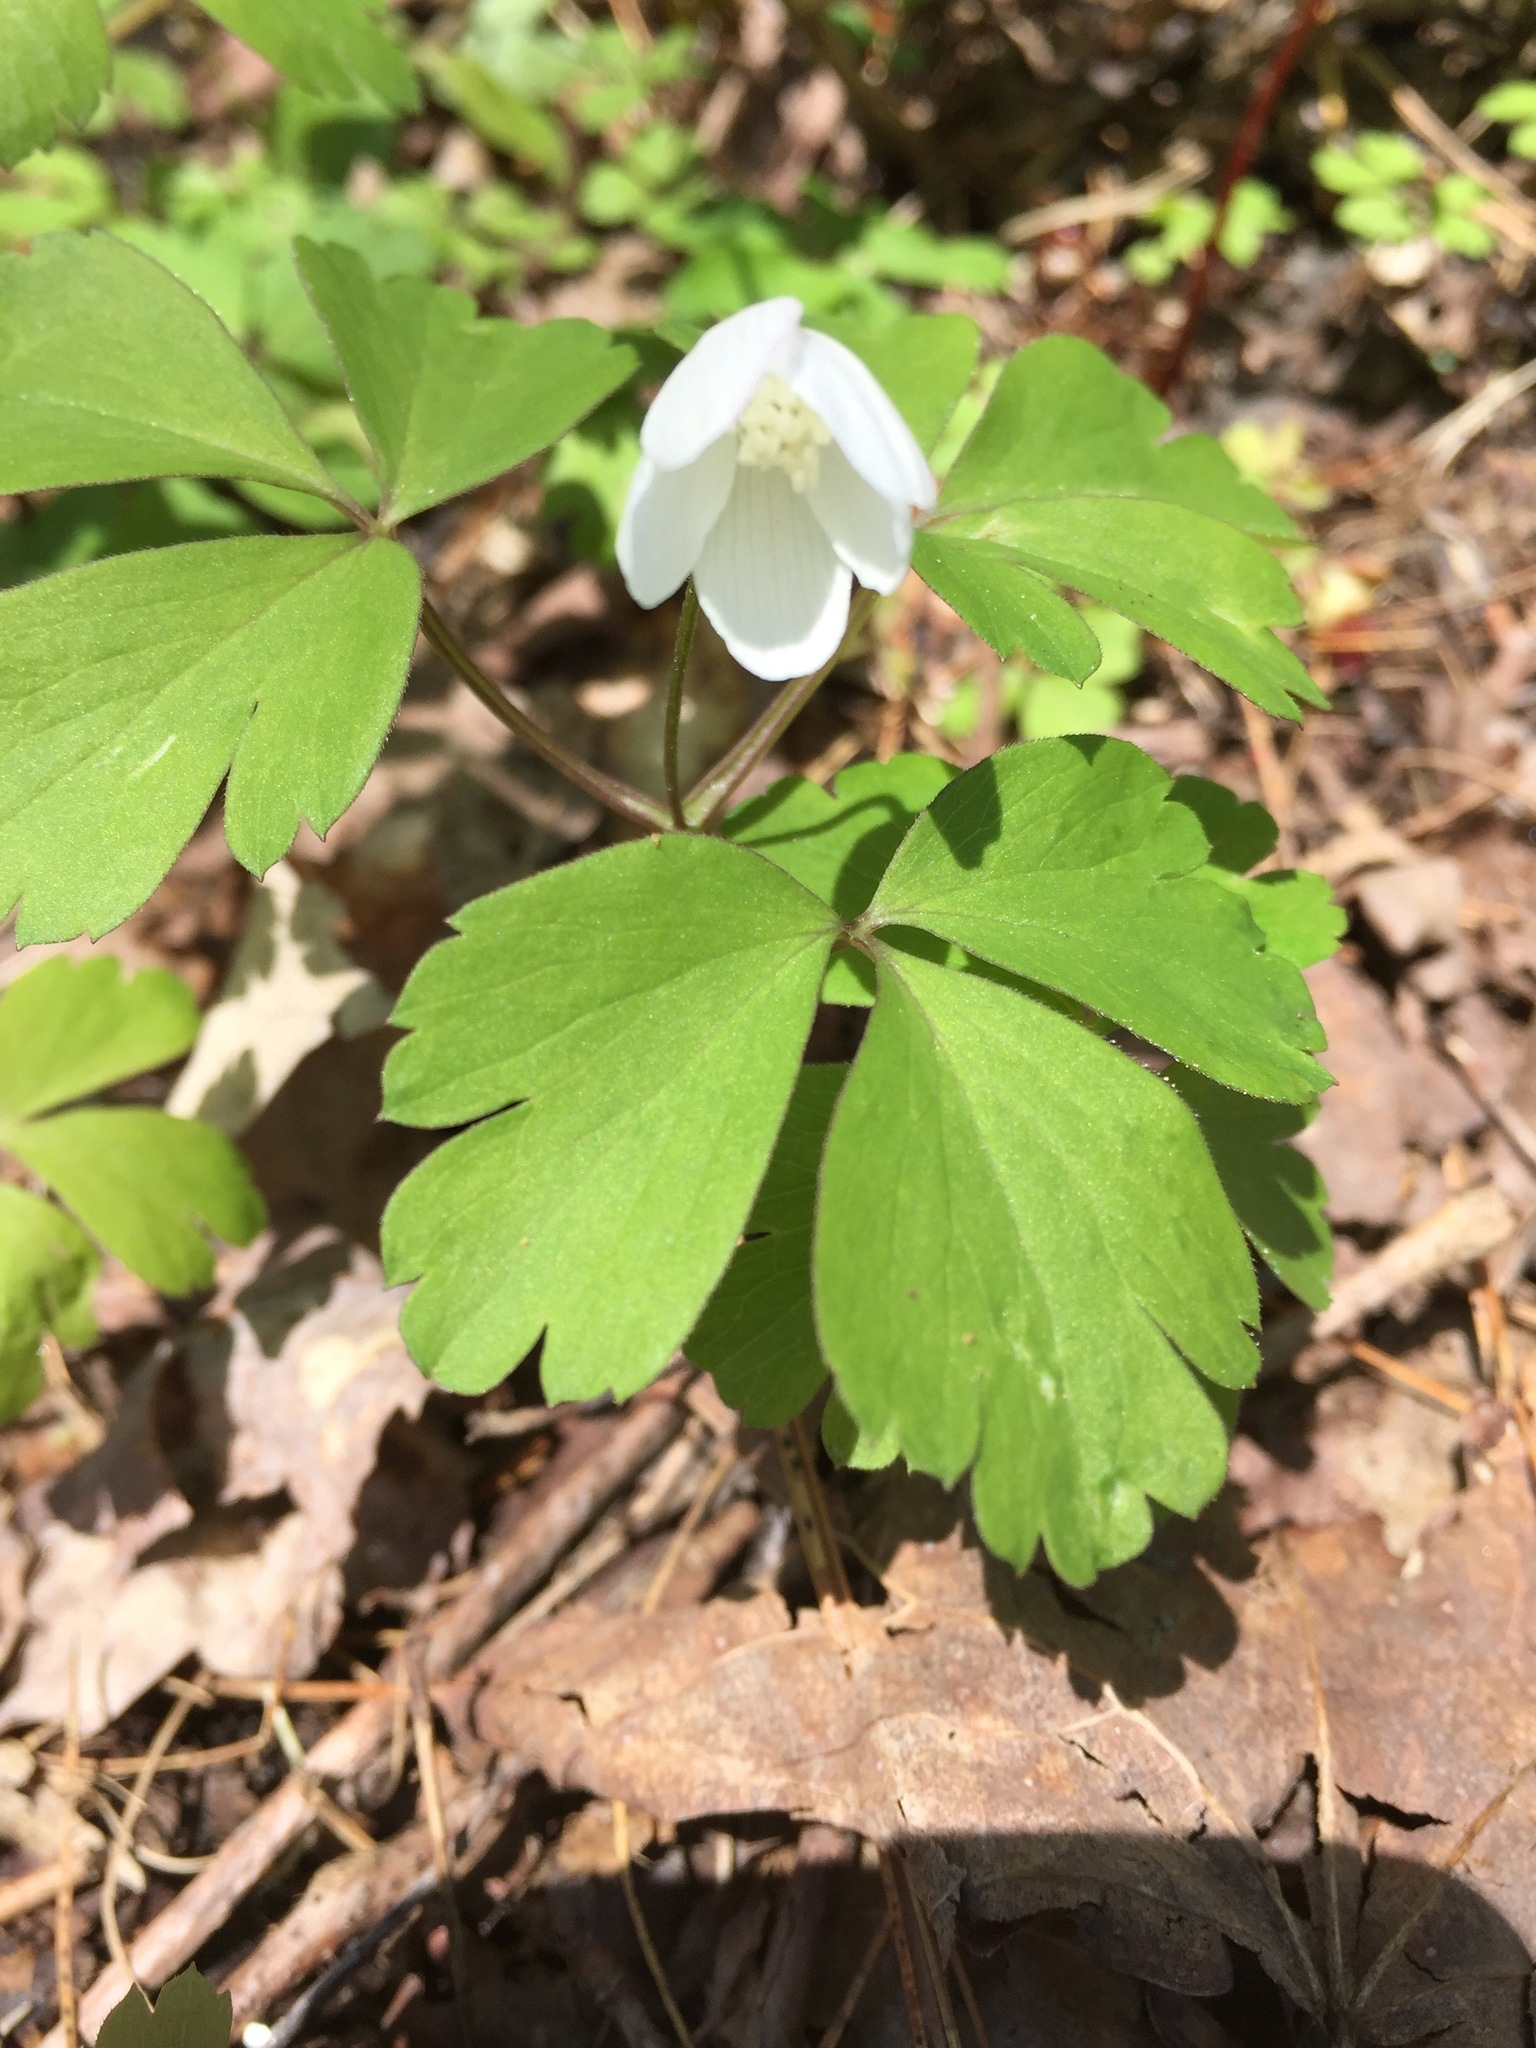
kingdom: Plantae
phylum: Tracheophyta
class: Magnoliopsida
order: Ranunculales
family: Ranunculaceae
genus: Anemone
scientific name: Anemone quinquefolia
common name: Wood anemone
